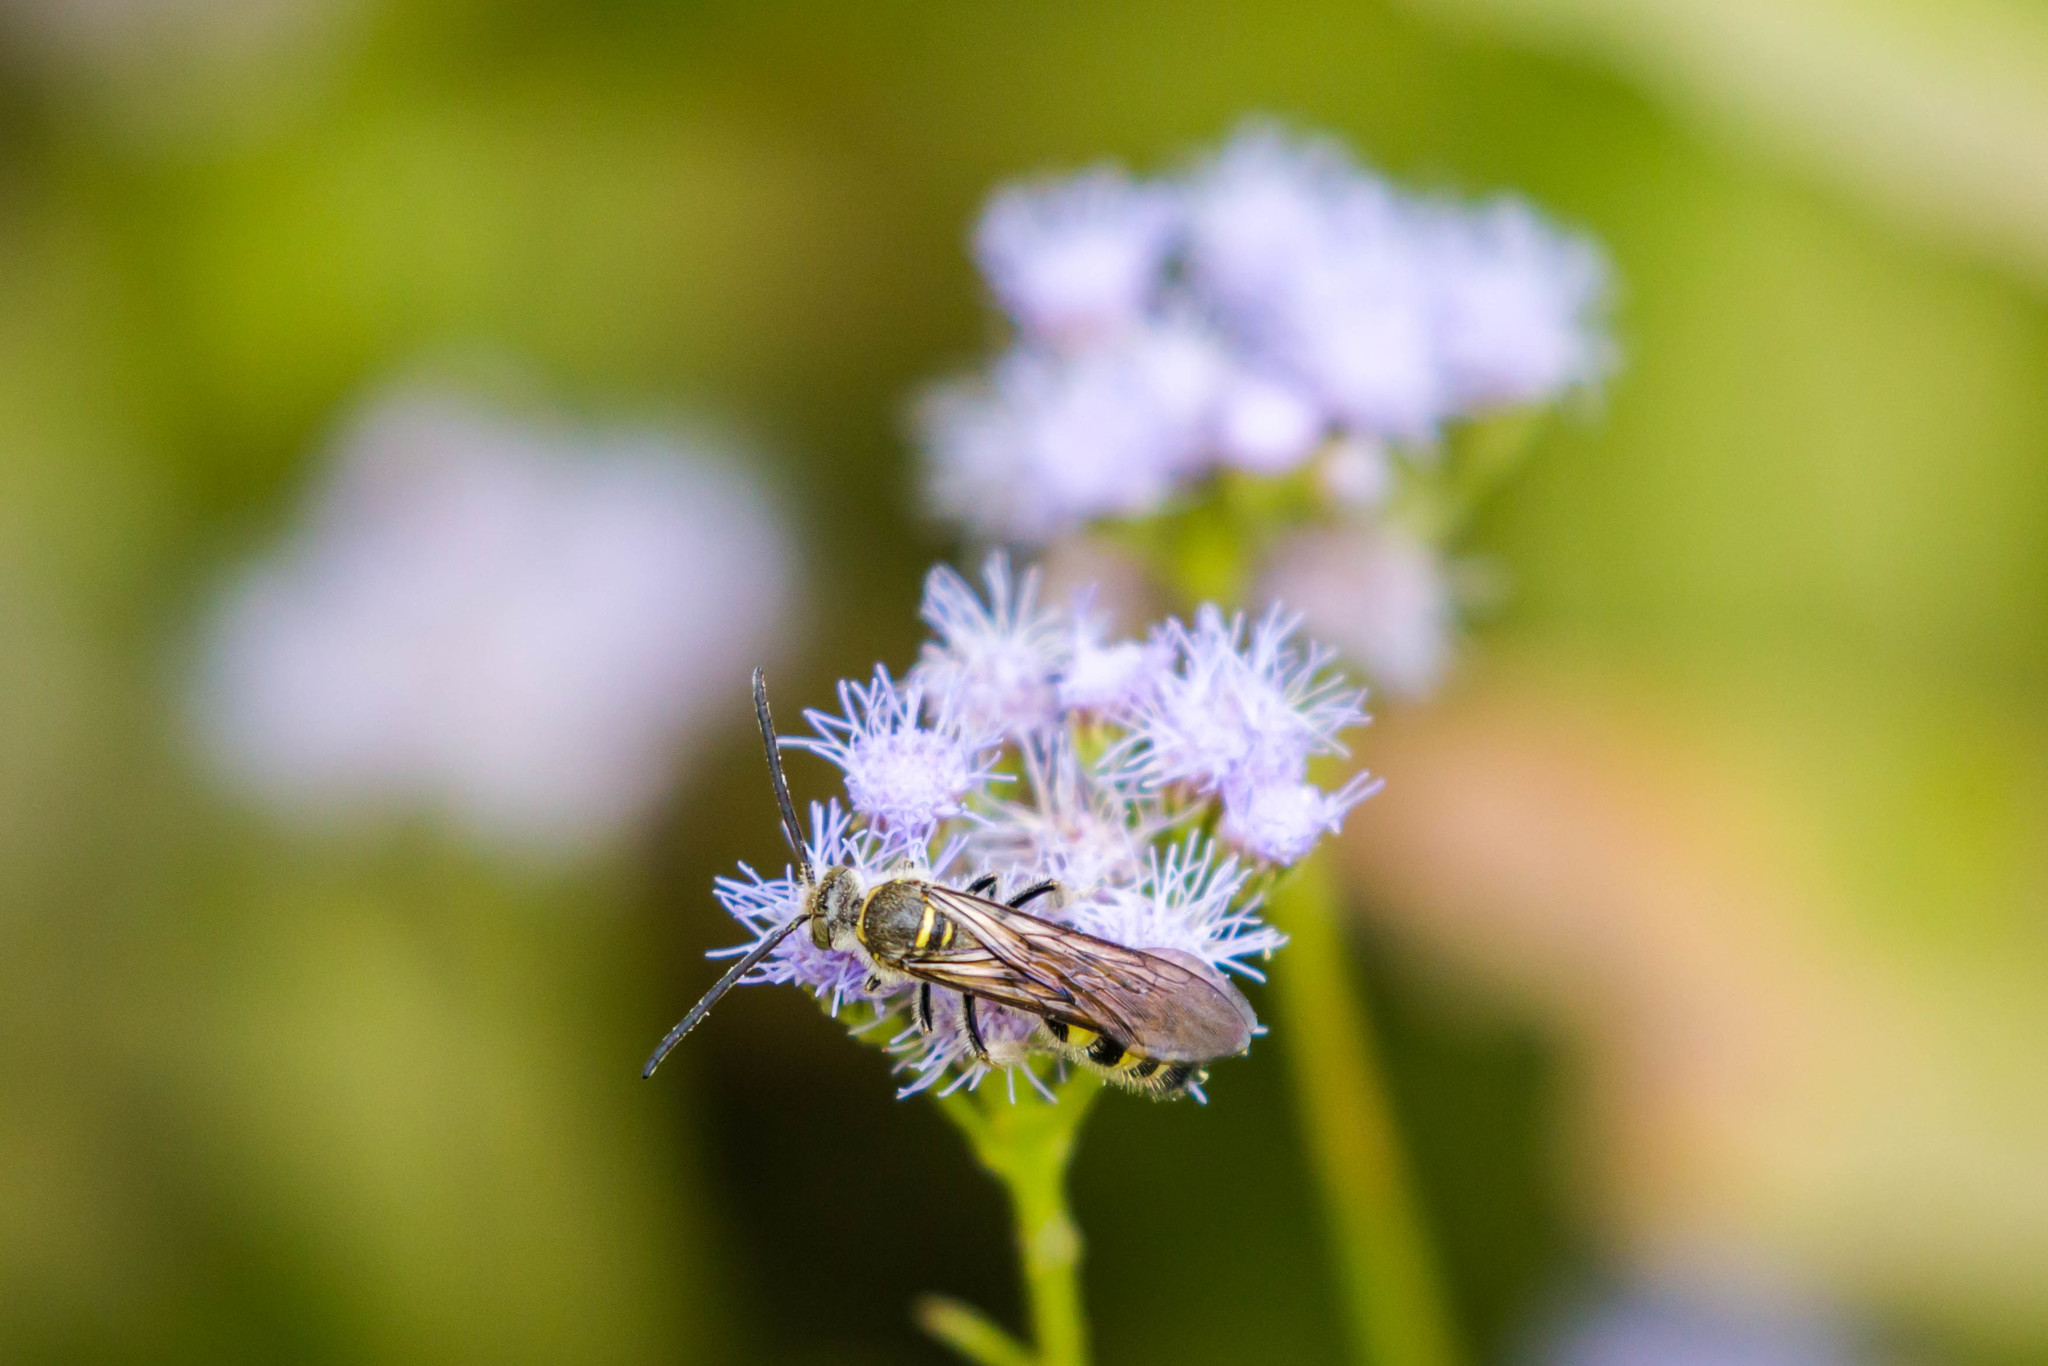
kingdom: Animalia
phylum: Arthropoda
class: Insecta
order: Hymenoptera
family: Scoliidae
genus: Dielis
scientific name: Dielis tolteca
